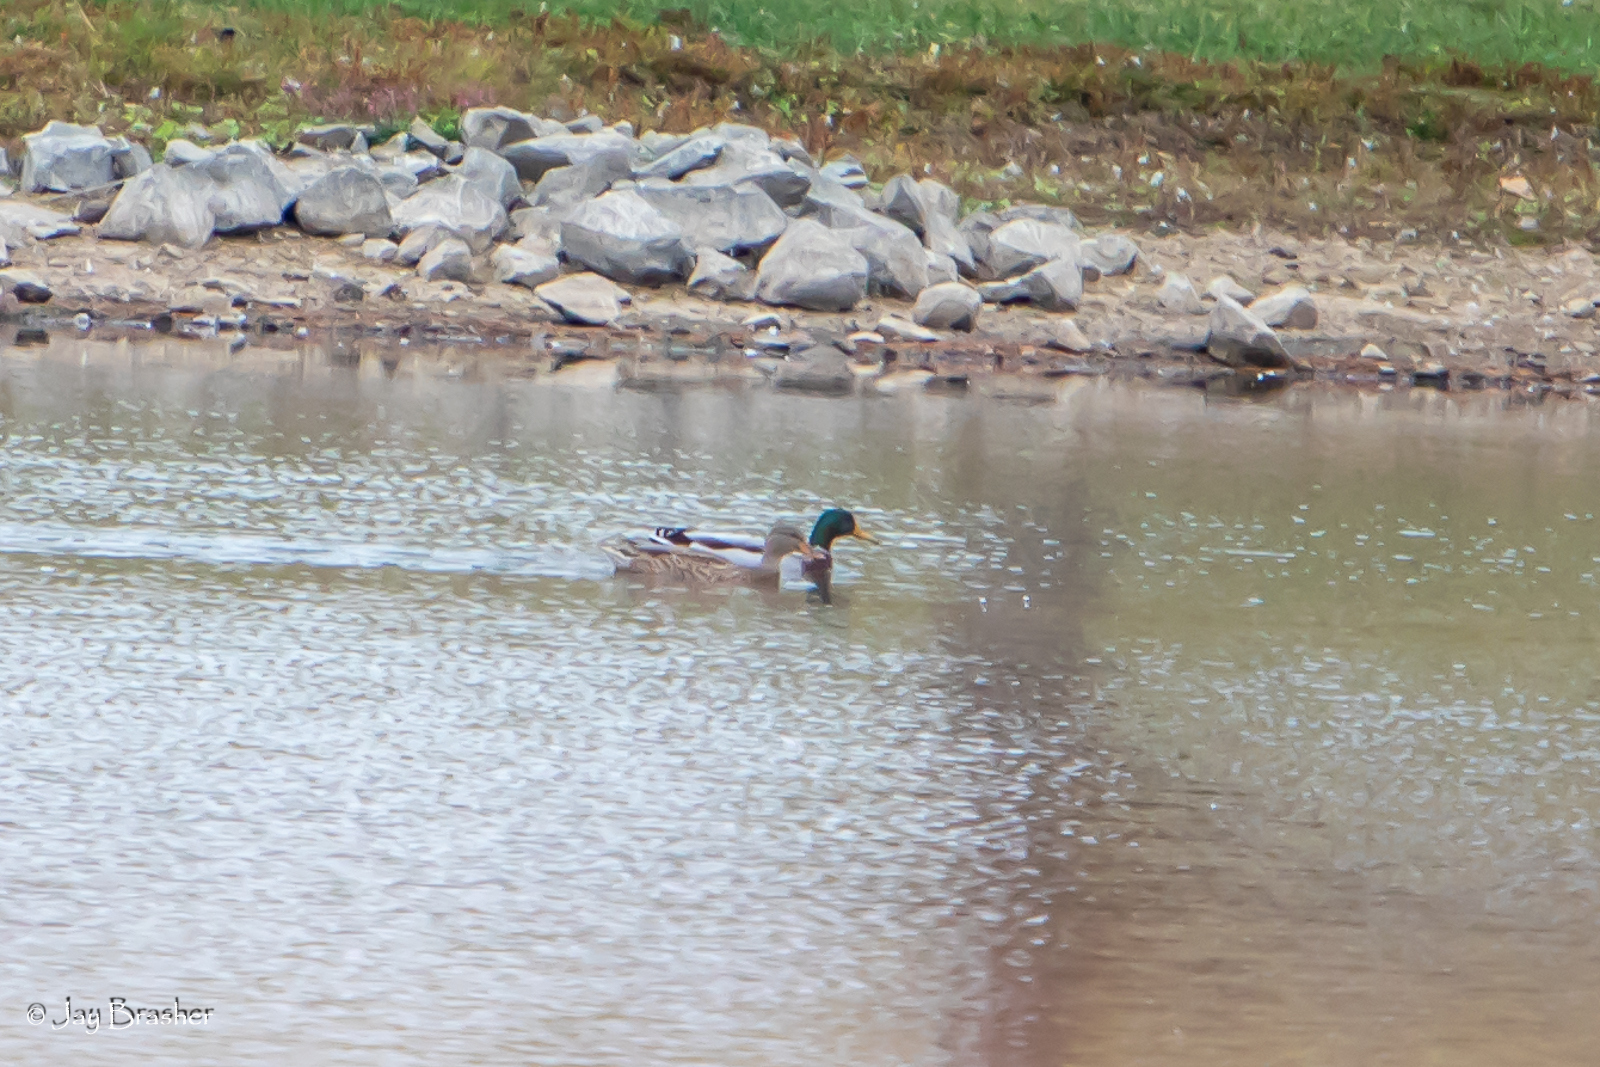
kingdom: Animalia
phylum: Chordata
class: Aves
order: Anseriformes
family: Anatidae
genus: Anas
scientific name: Anas platyrhynchos
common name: Mallard
